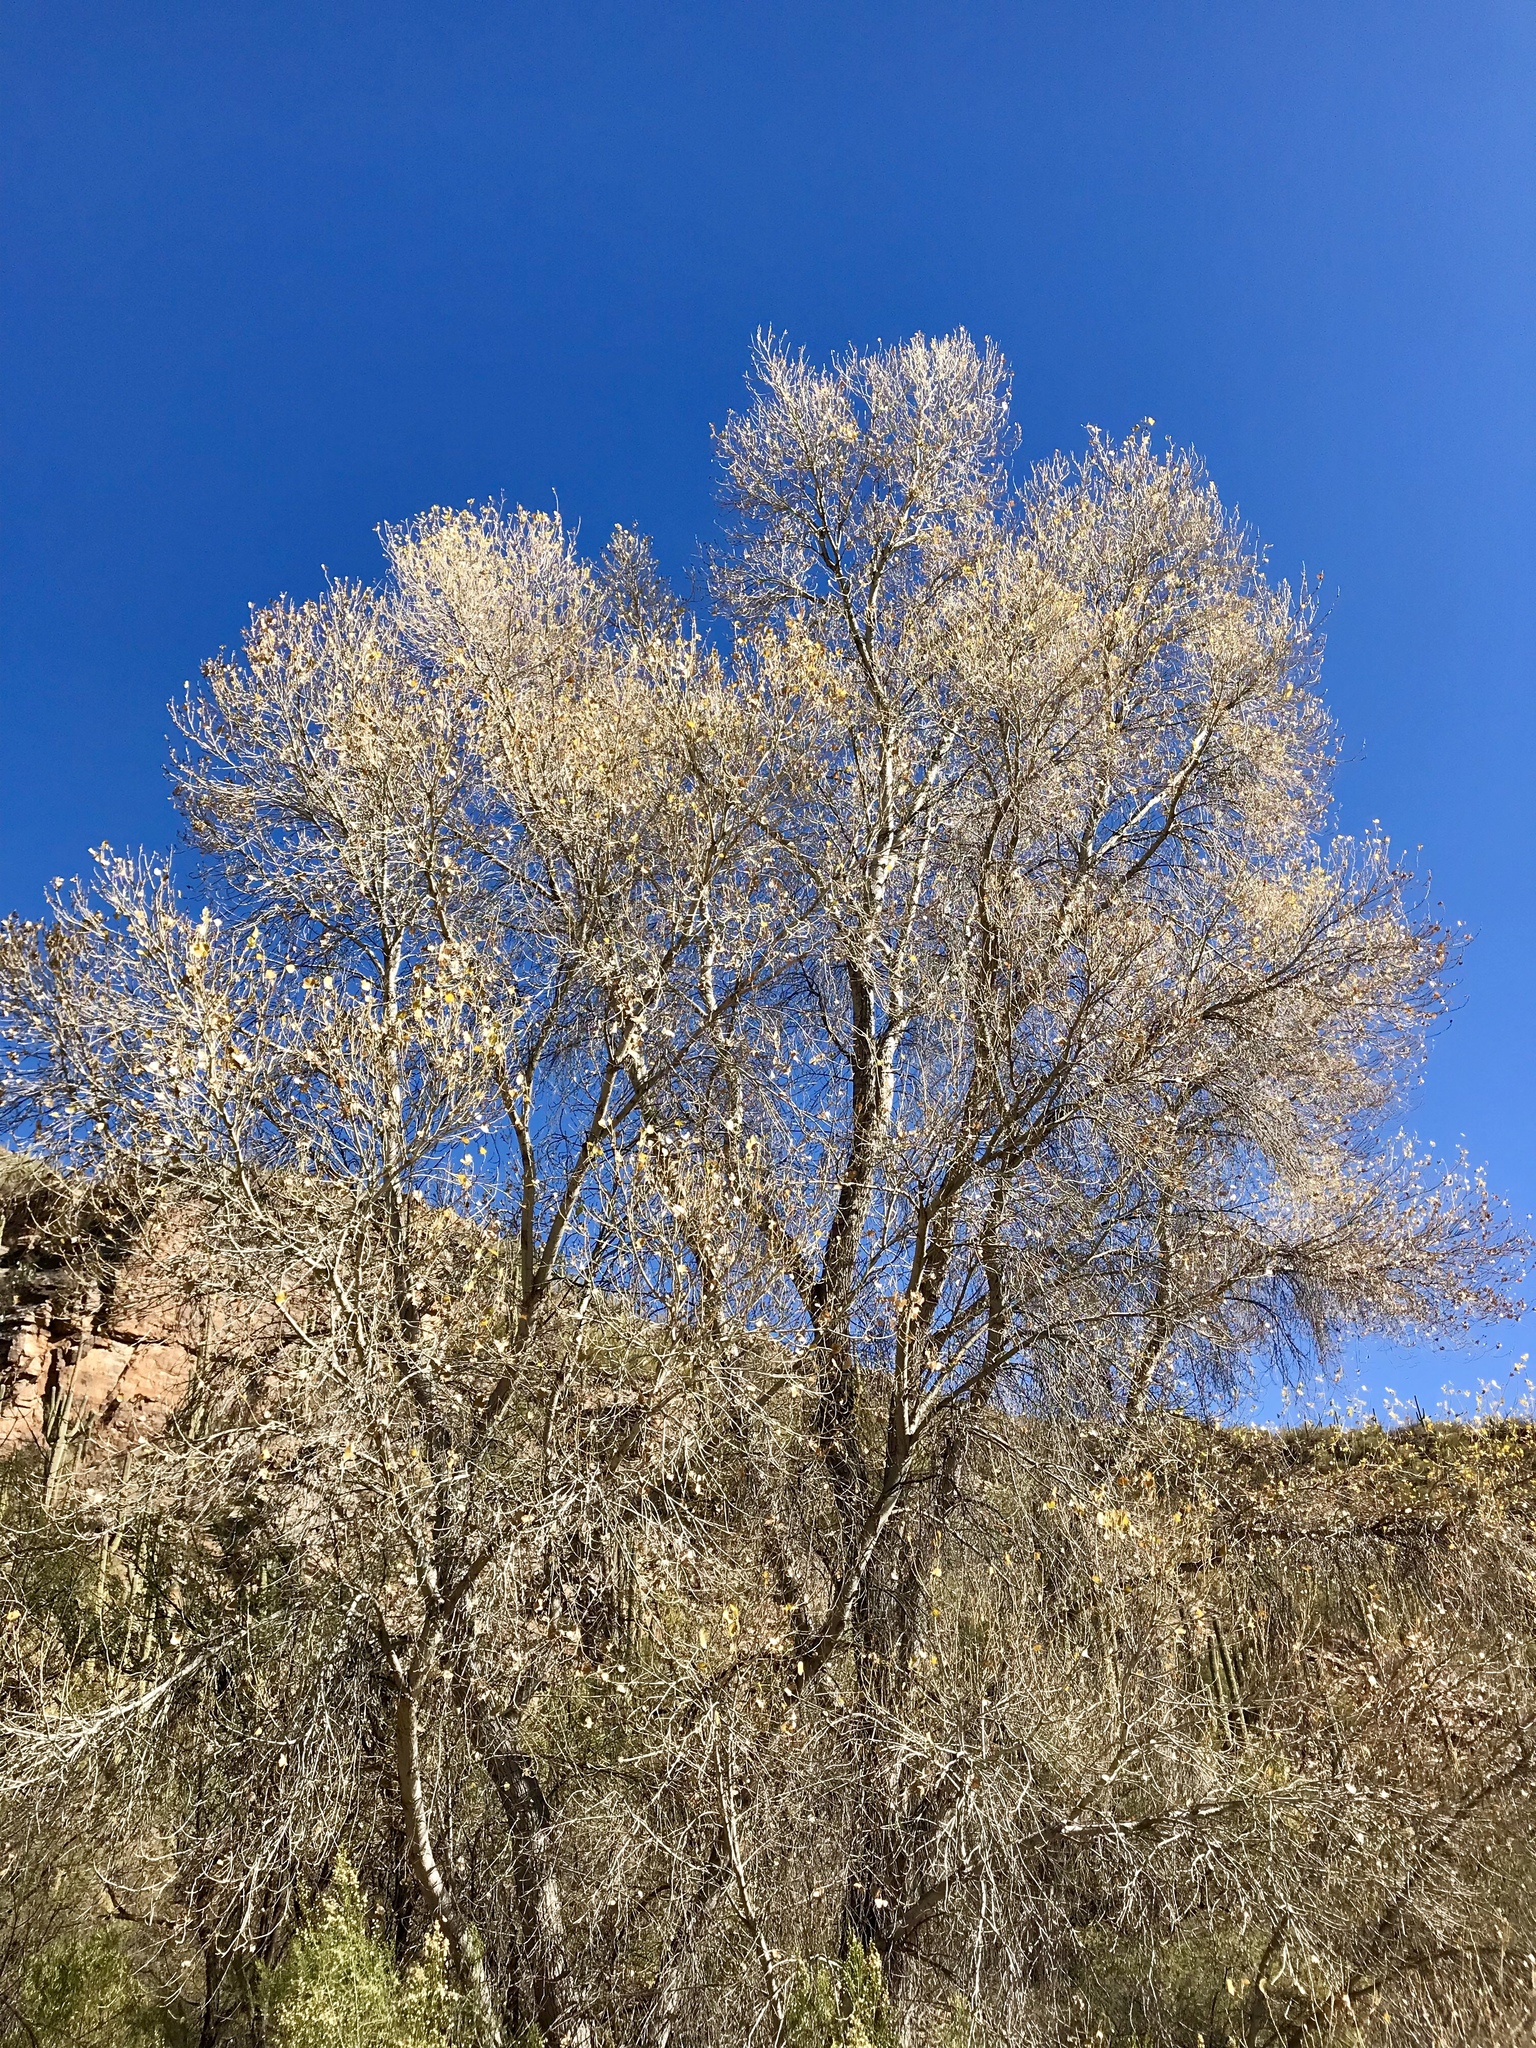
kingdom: Plantae
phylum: Tracheophyta
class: Magnoliopsida
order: Malpighiales
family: Salicaceae
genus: Populus
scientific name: Populus fremontii
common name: Fremont's cottonwood
